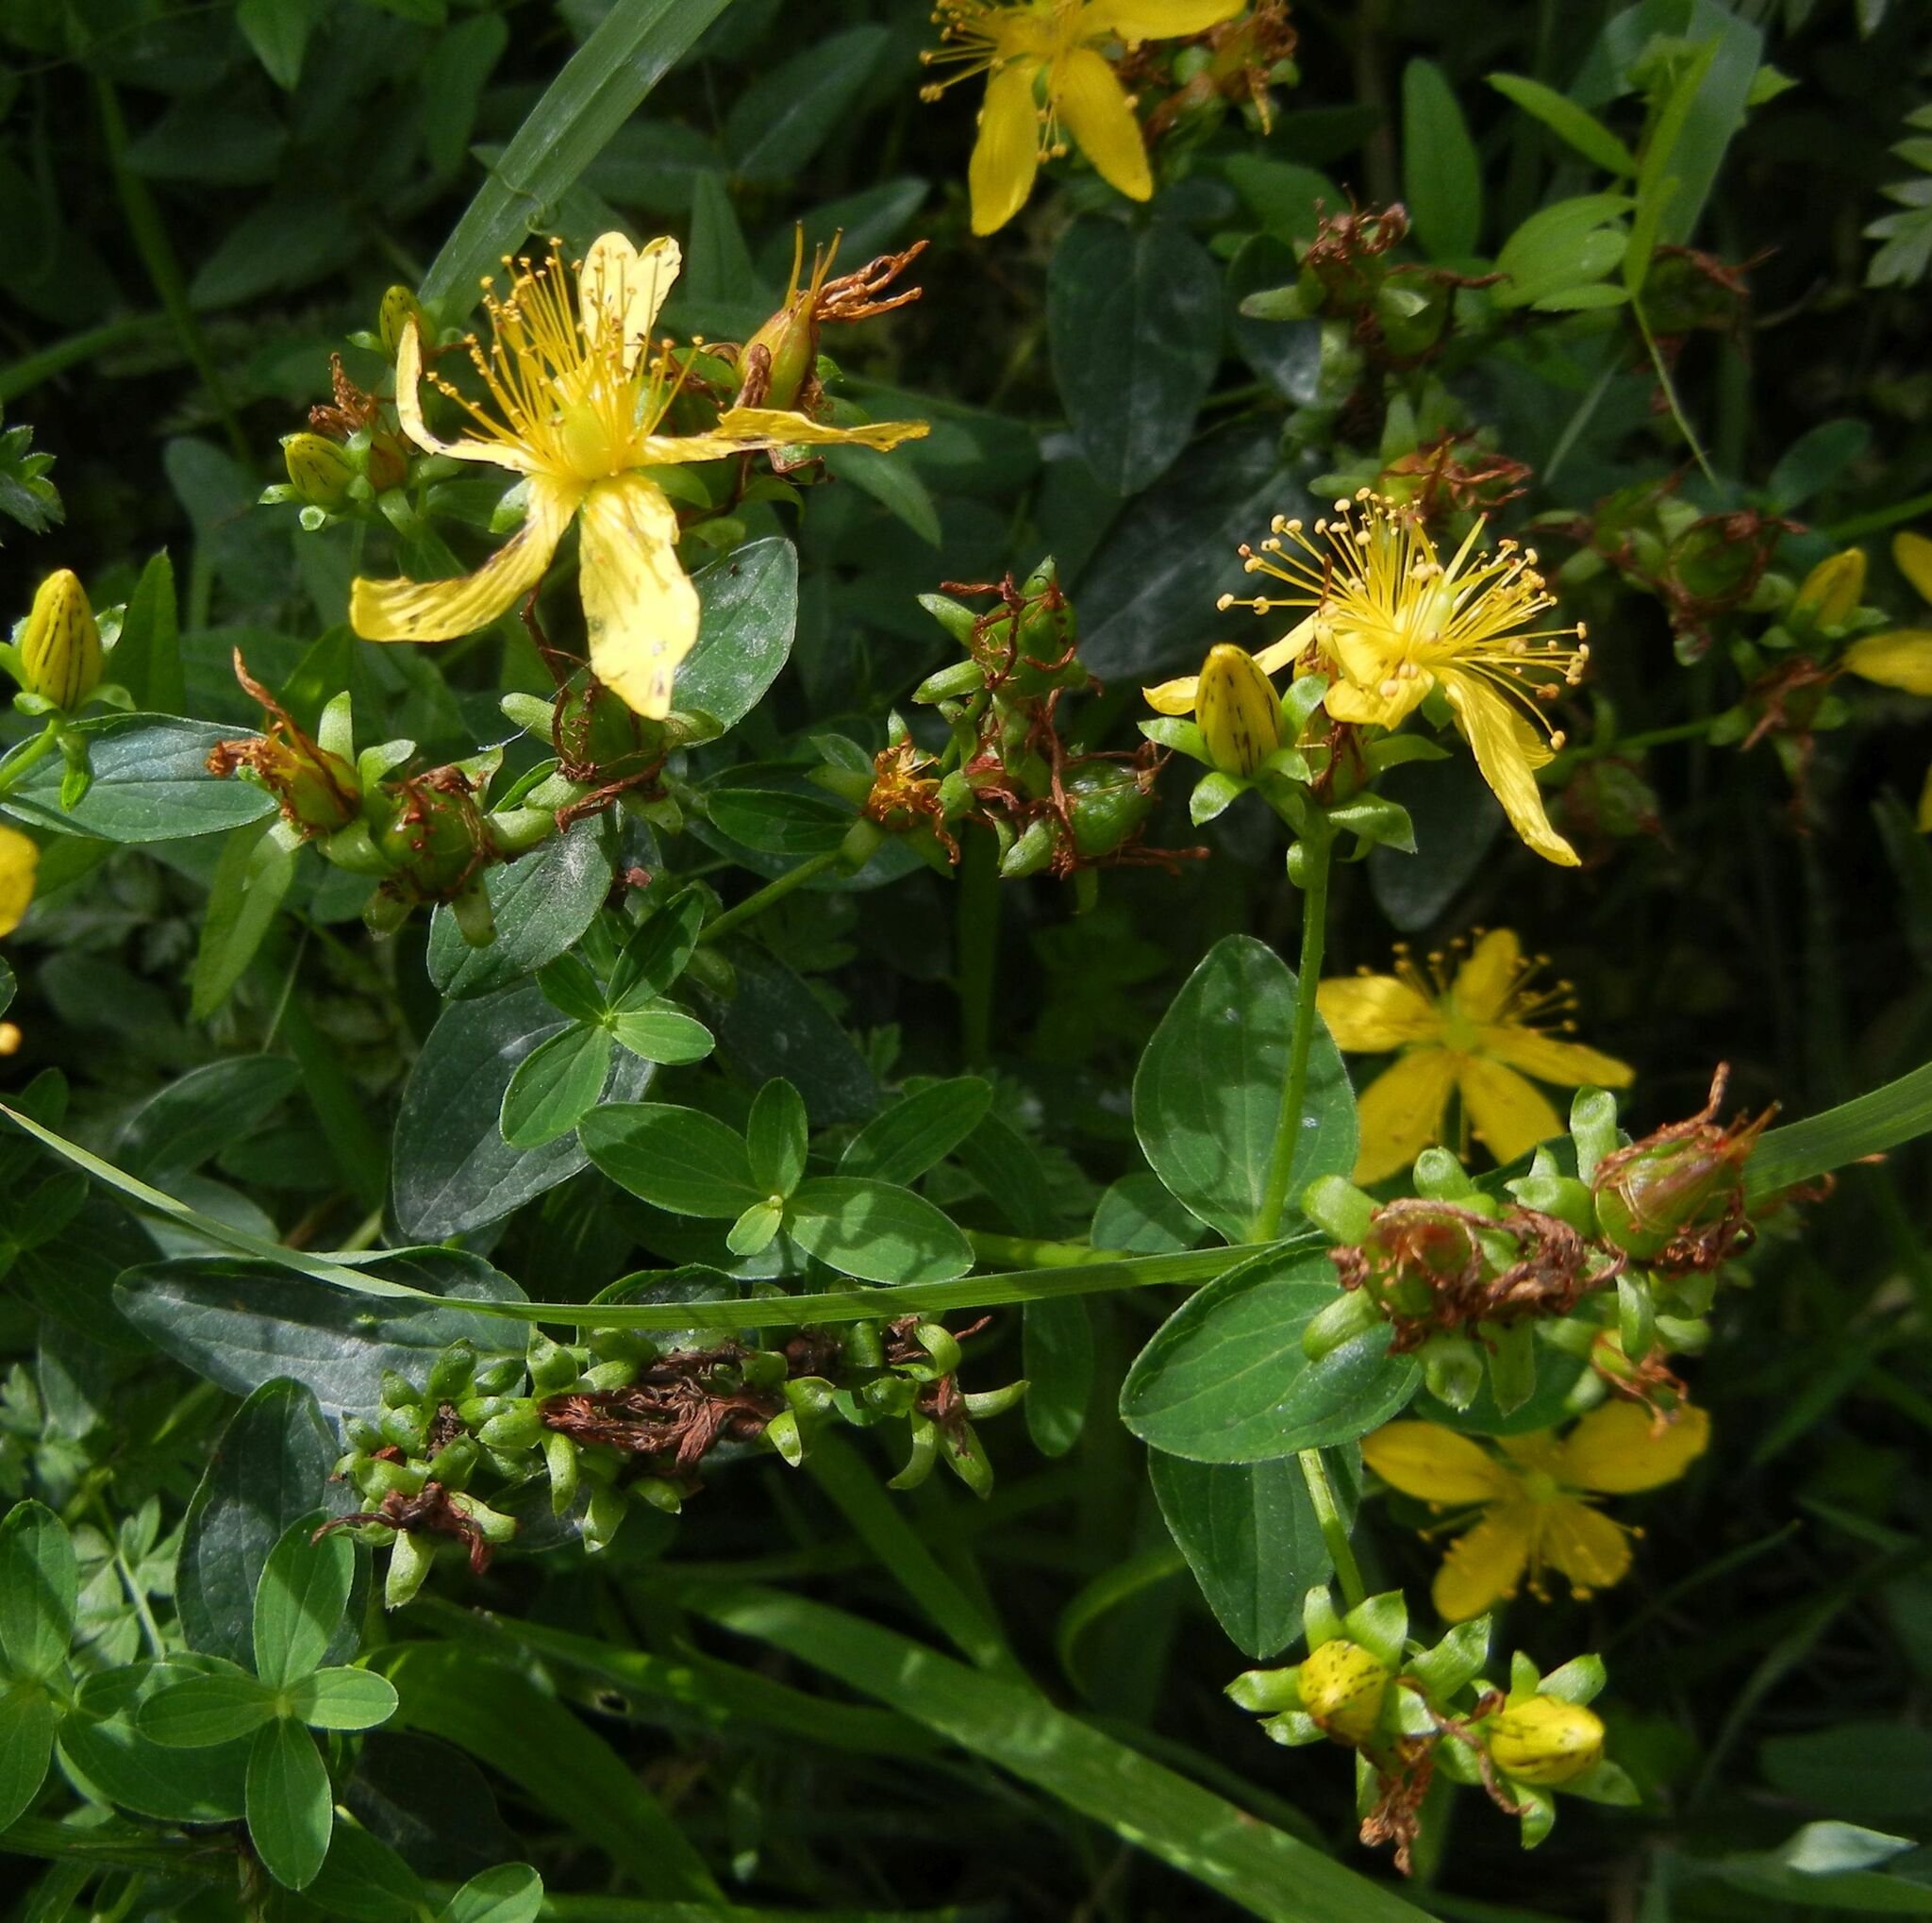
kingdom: Plantae
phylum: Tracheophyta
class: Magnoliopsida
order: Malpighiales
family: Hypericaceae
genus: Hypericum
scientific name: Hypericum dubium
